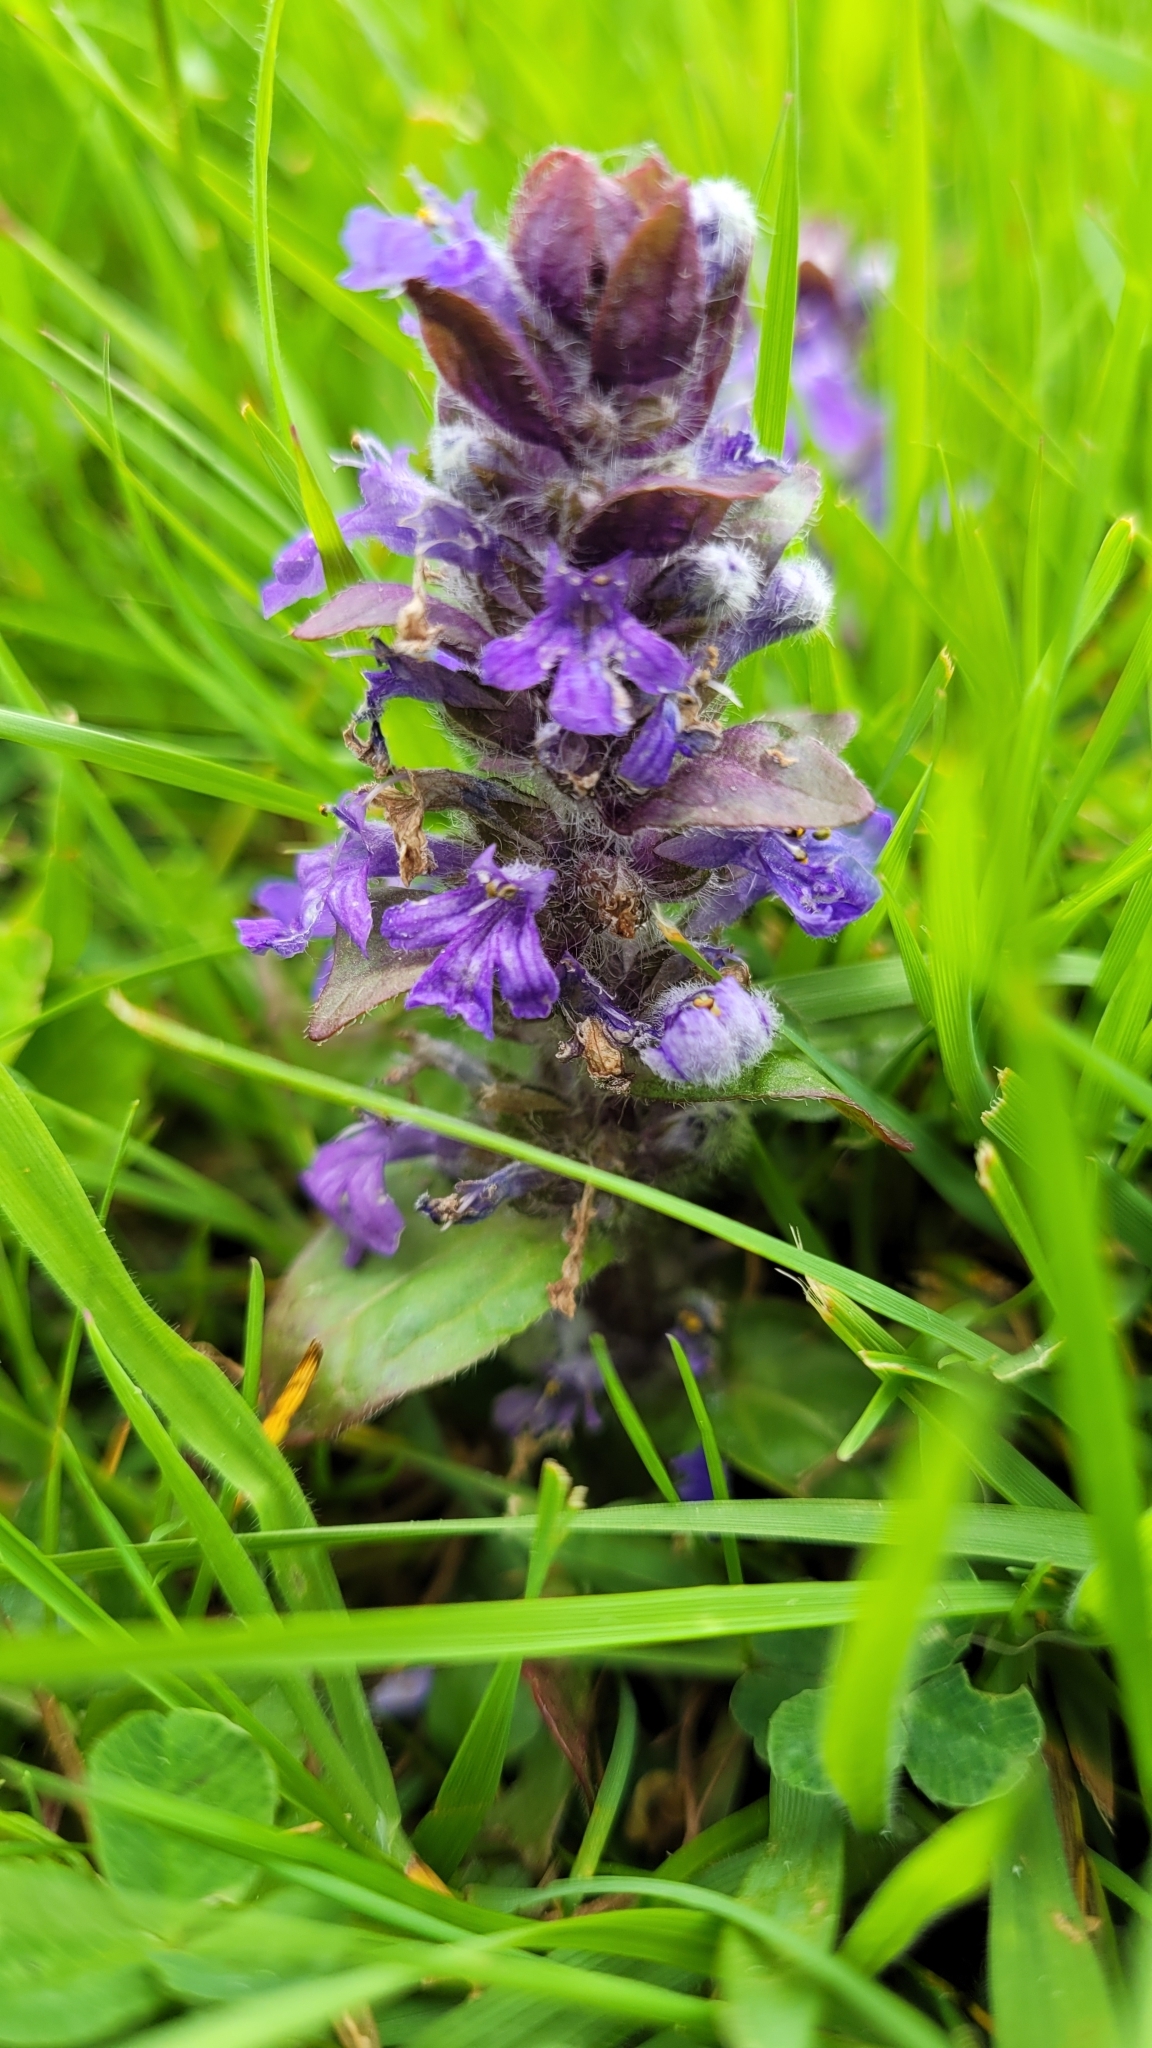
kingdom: Plantae
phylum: Tracheophyta
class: Magnoliopsida
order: Lamiales
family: Lamiaceae
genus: Ajuga
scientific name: Ajuga reptans
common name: Bugle
